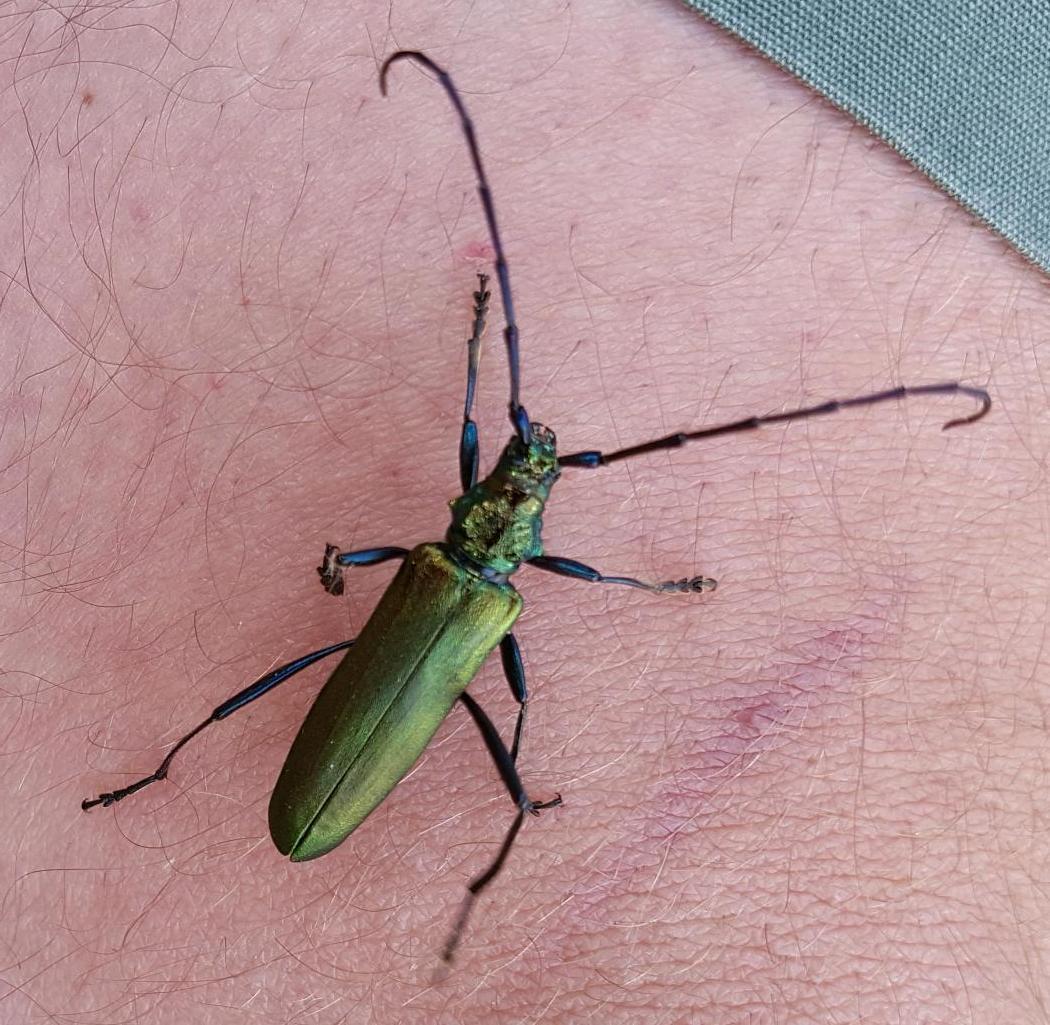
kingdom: Animalia
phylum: Arthropoda
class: Insecta
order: Coleoptera
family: Cerambycidae
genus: Aromia
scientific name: Aromia moschata
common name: Musk beetle
